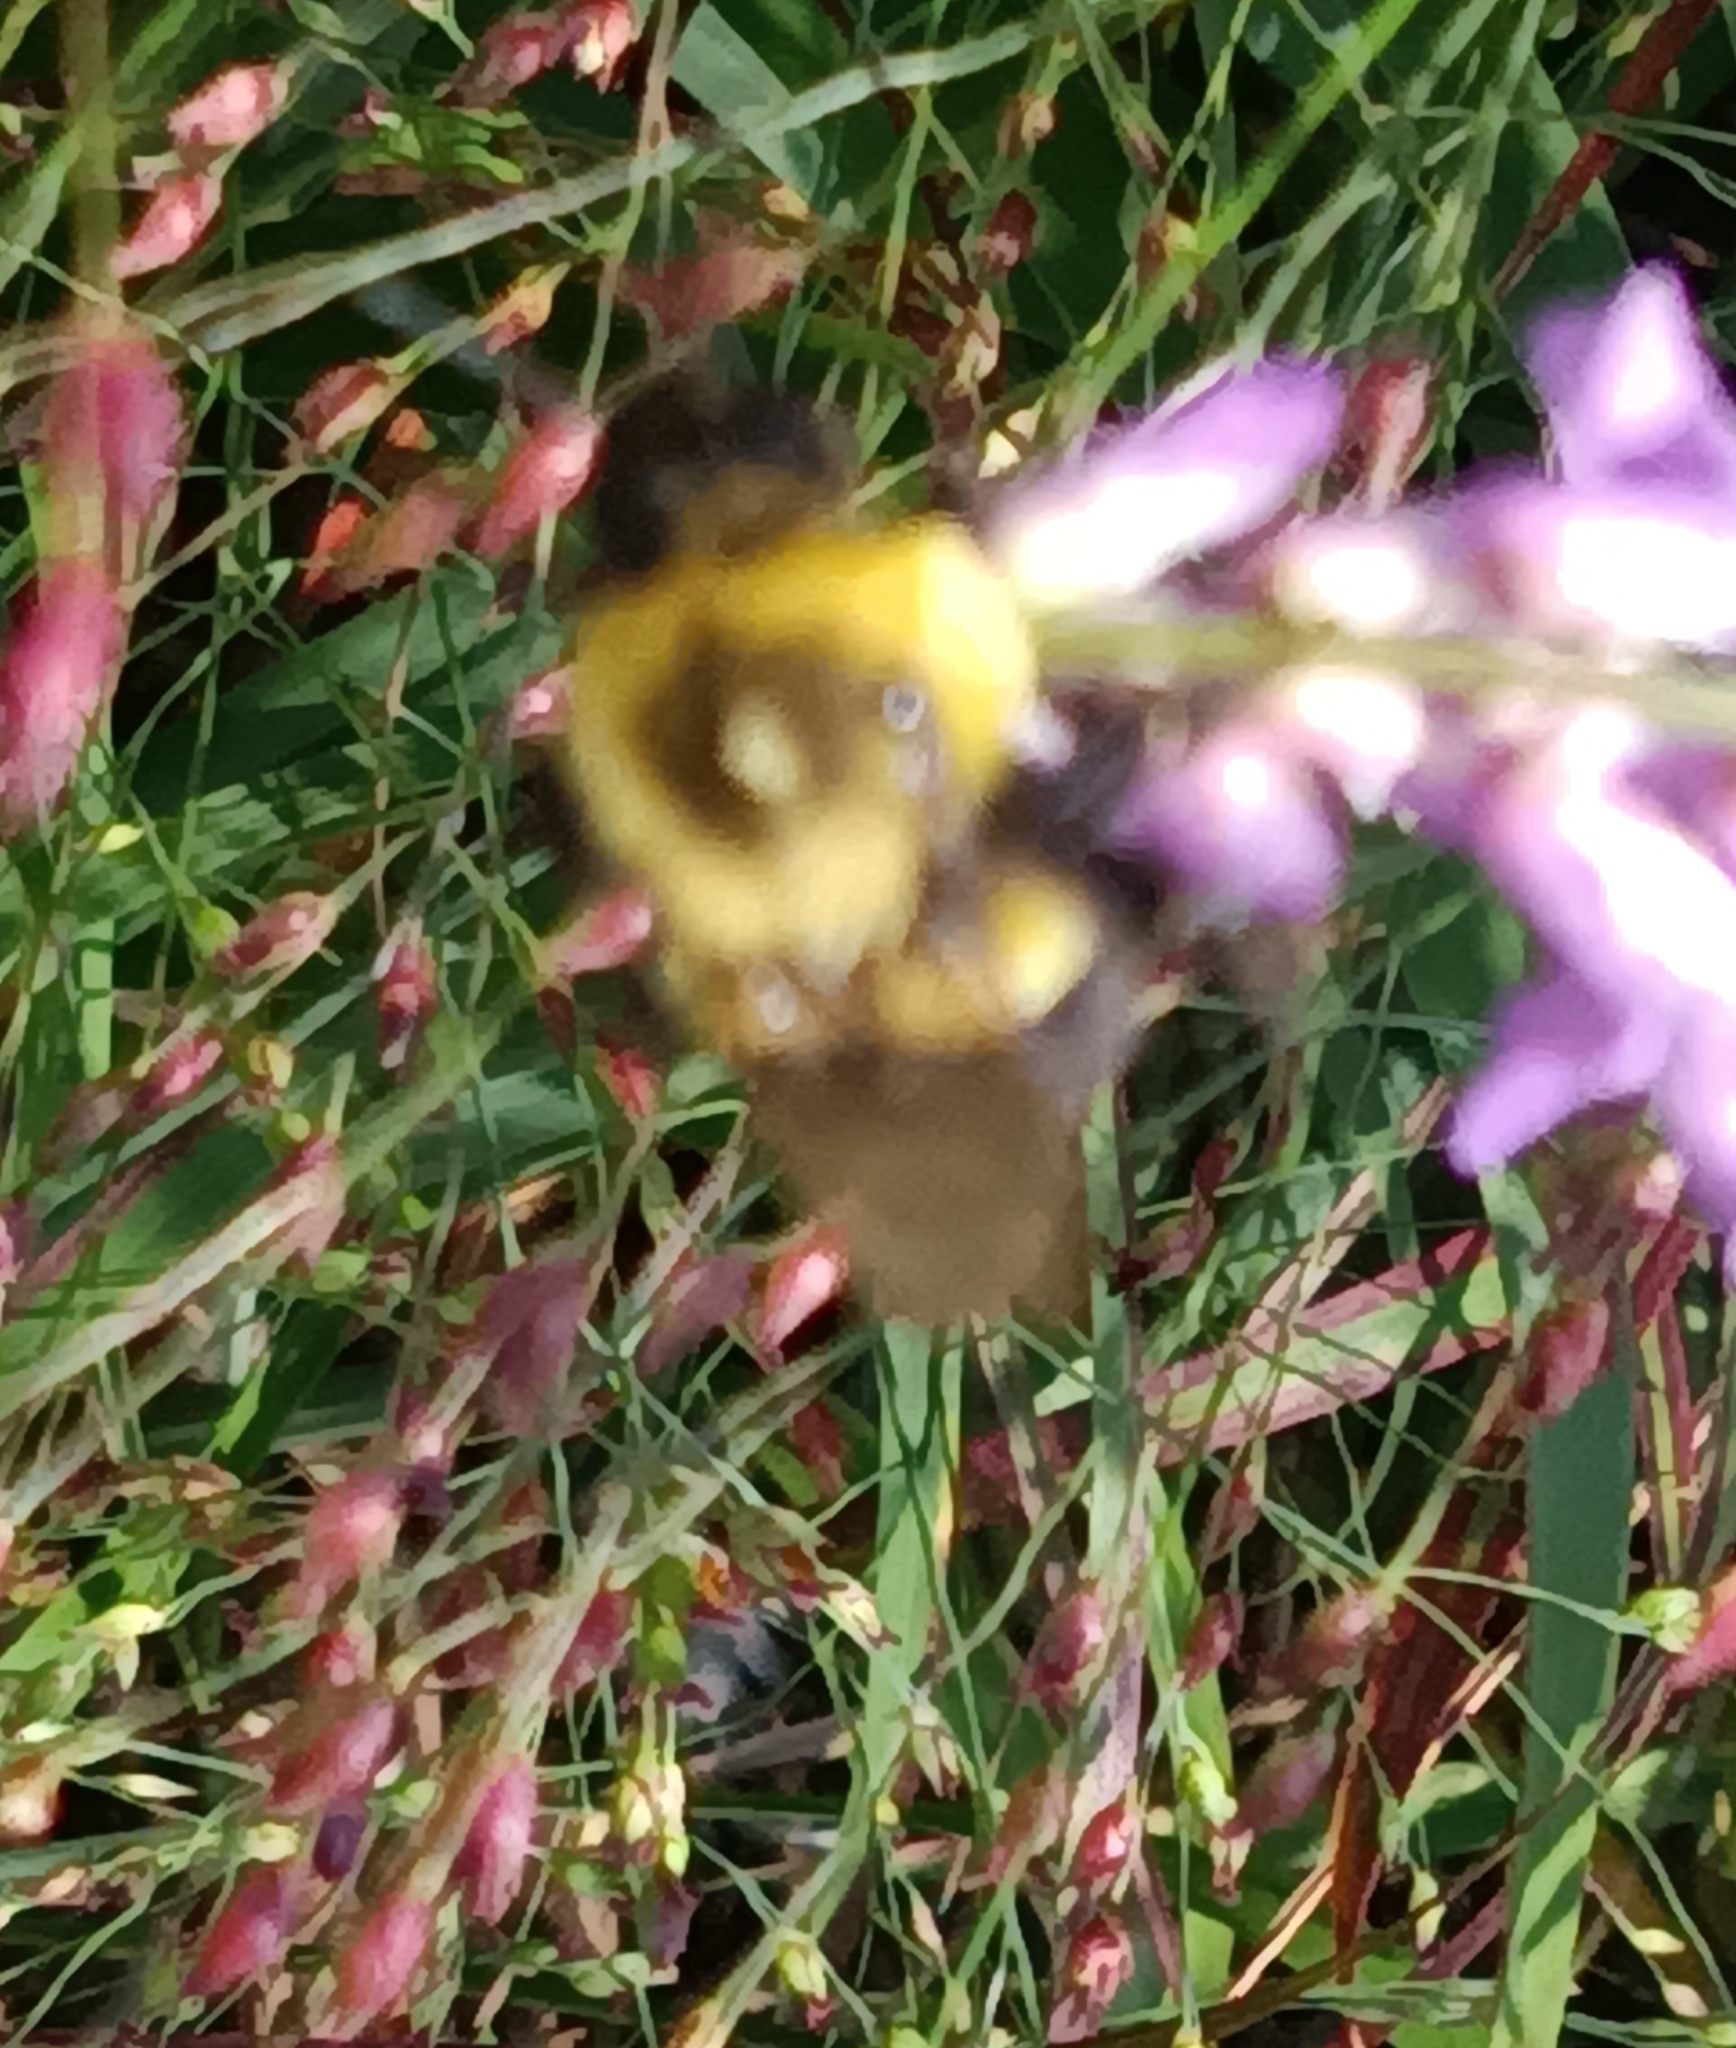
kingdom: Animalia
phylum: Arthropoda
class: Insecta
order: Hymenoptera
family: Apidae
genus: Bombus
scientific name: Bombus impatiens
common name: Common eastern bumble bee
